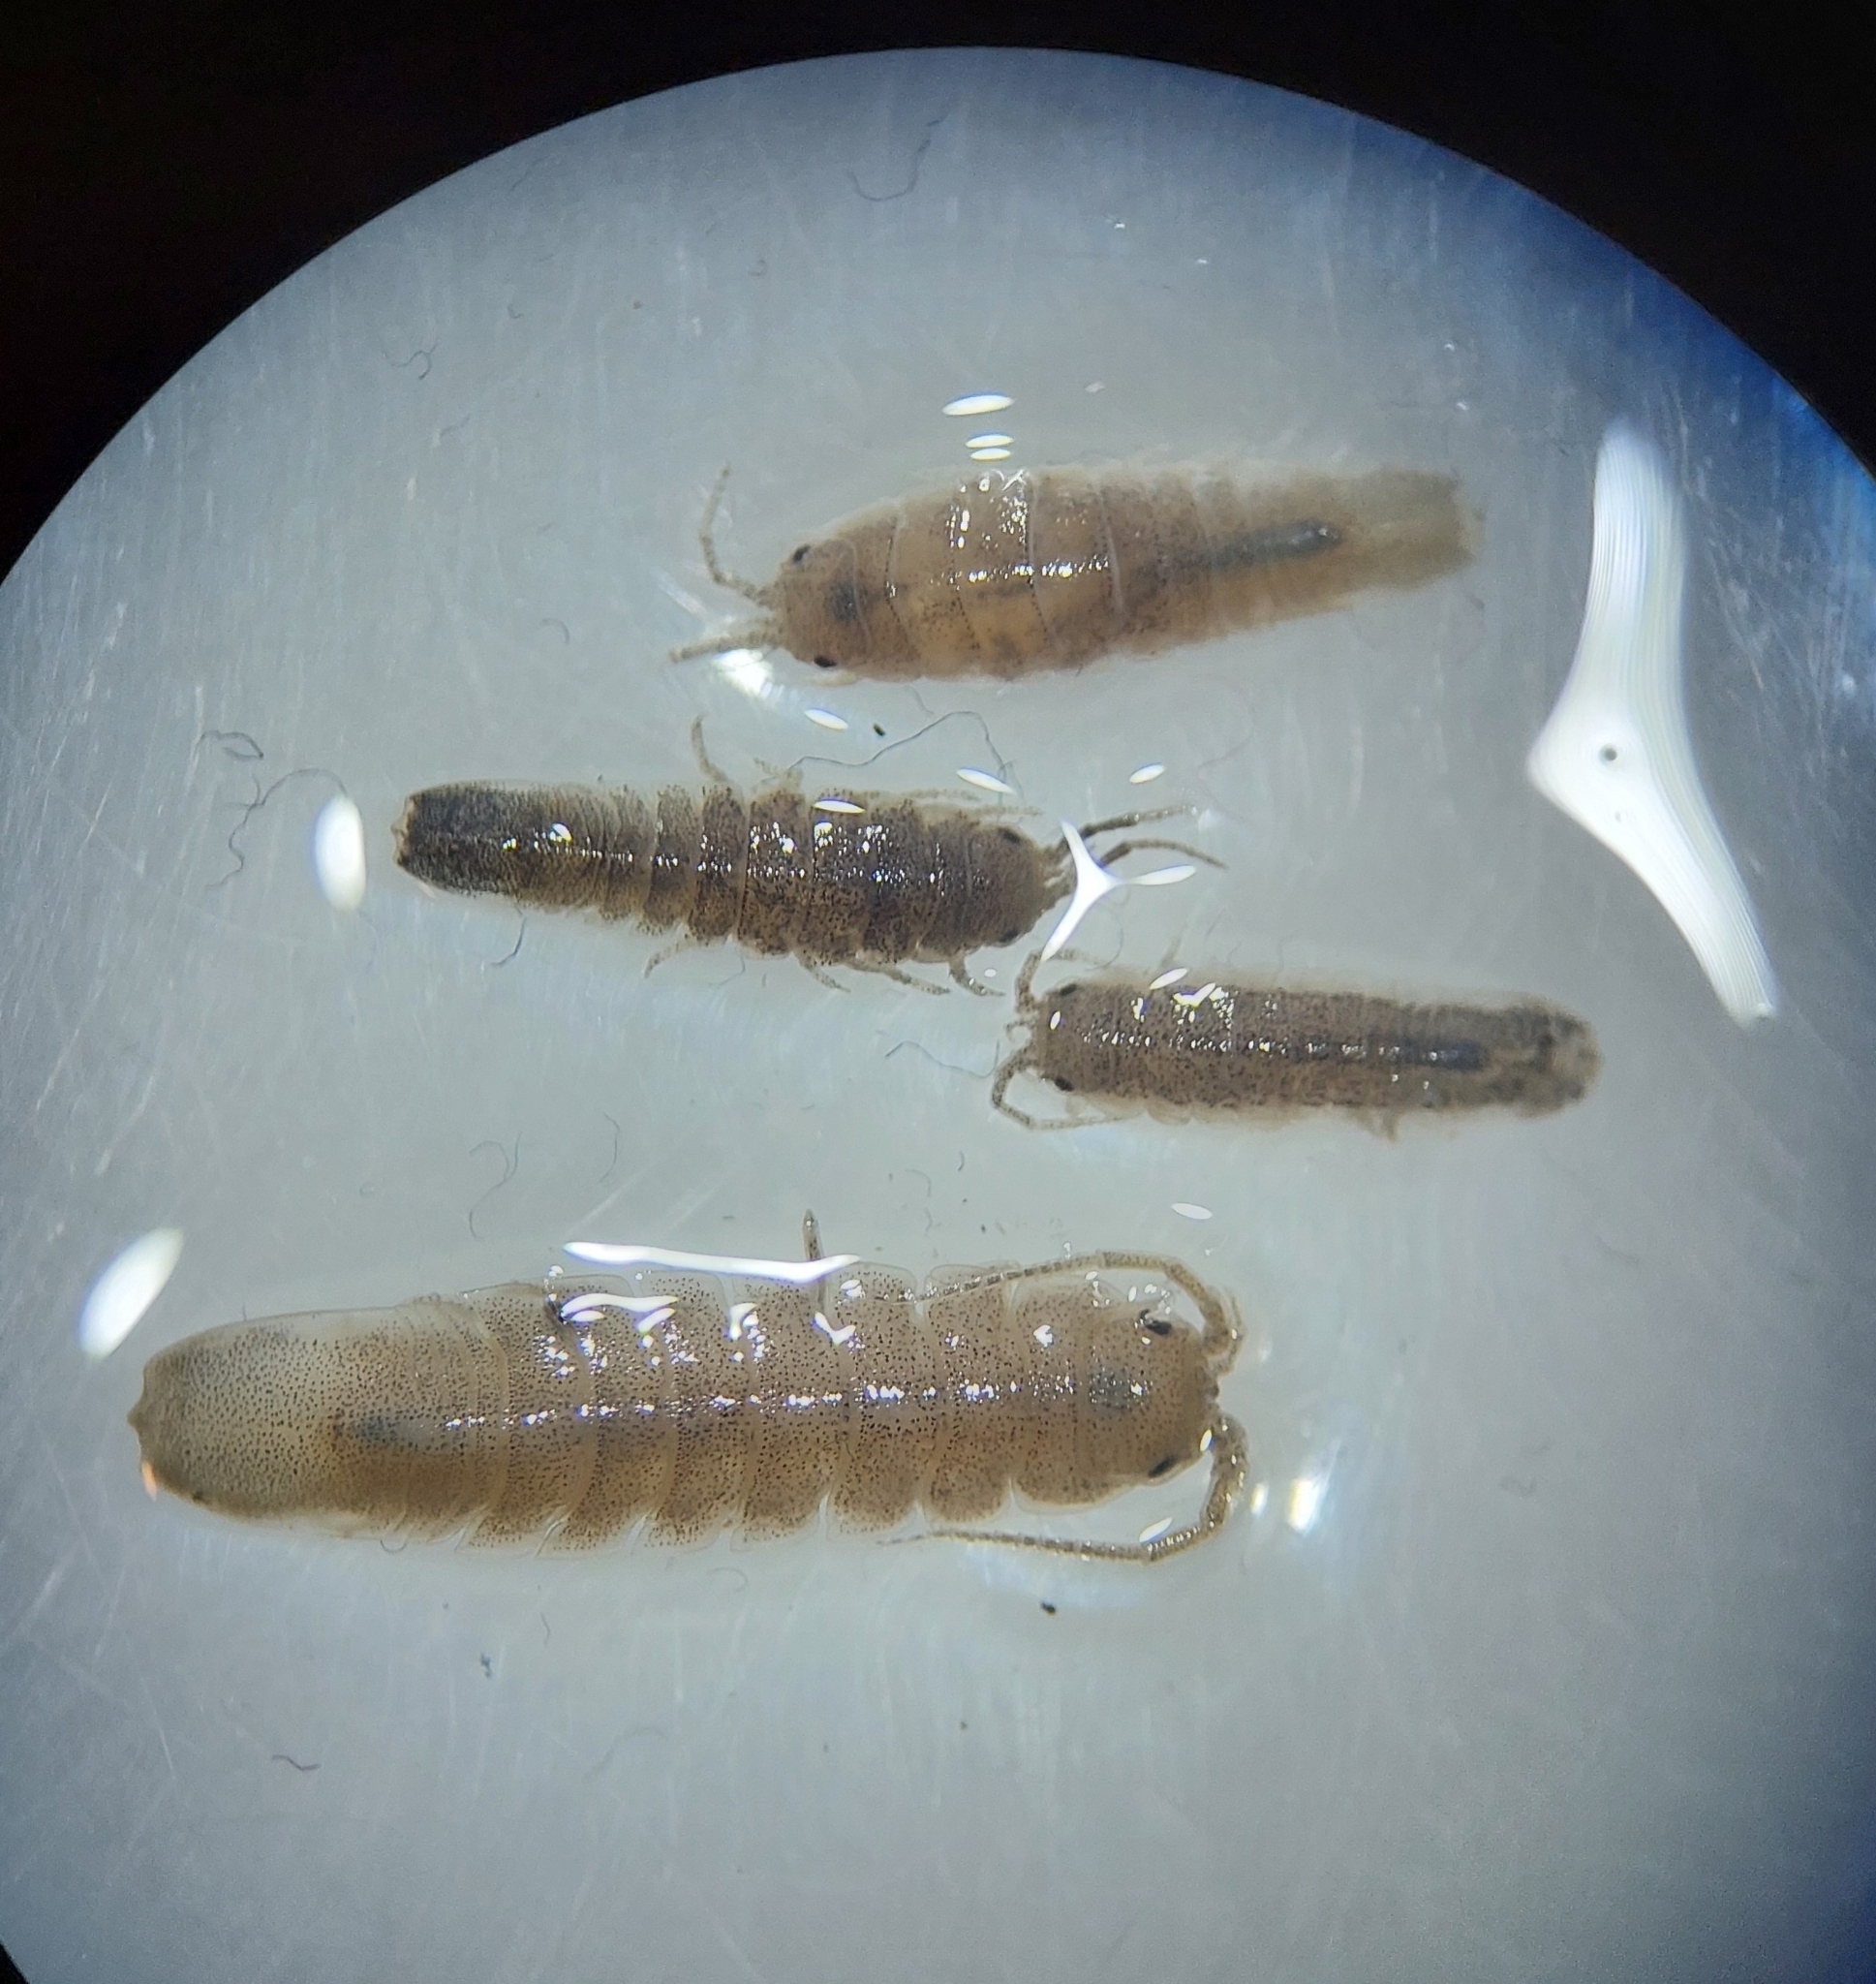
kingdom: Animalia
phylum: Arthropoda
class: Malacostraca
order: Isopoda
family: Idoteidae
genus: Idotea
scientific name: Idotea balthica
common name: Baltic isopod
